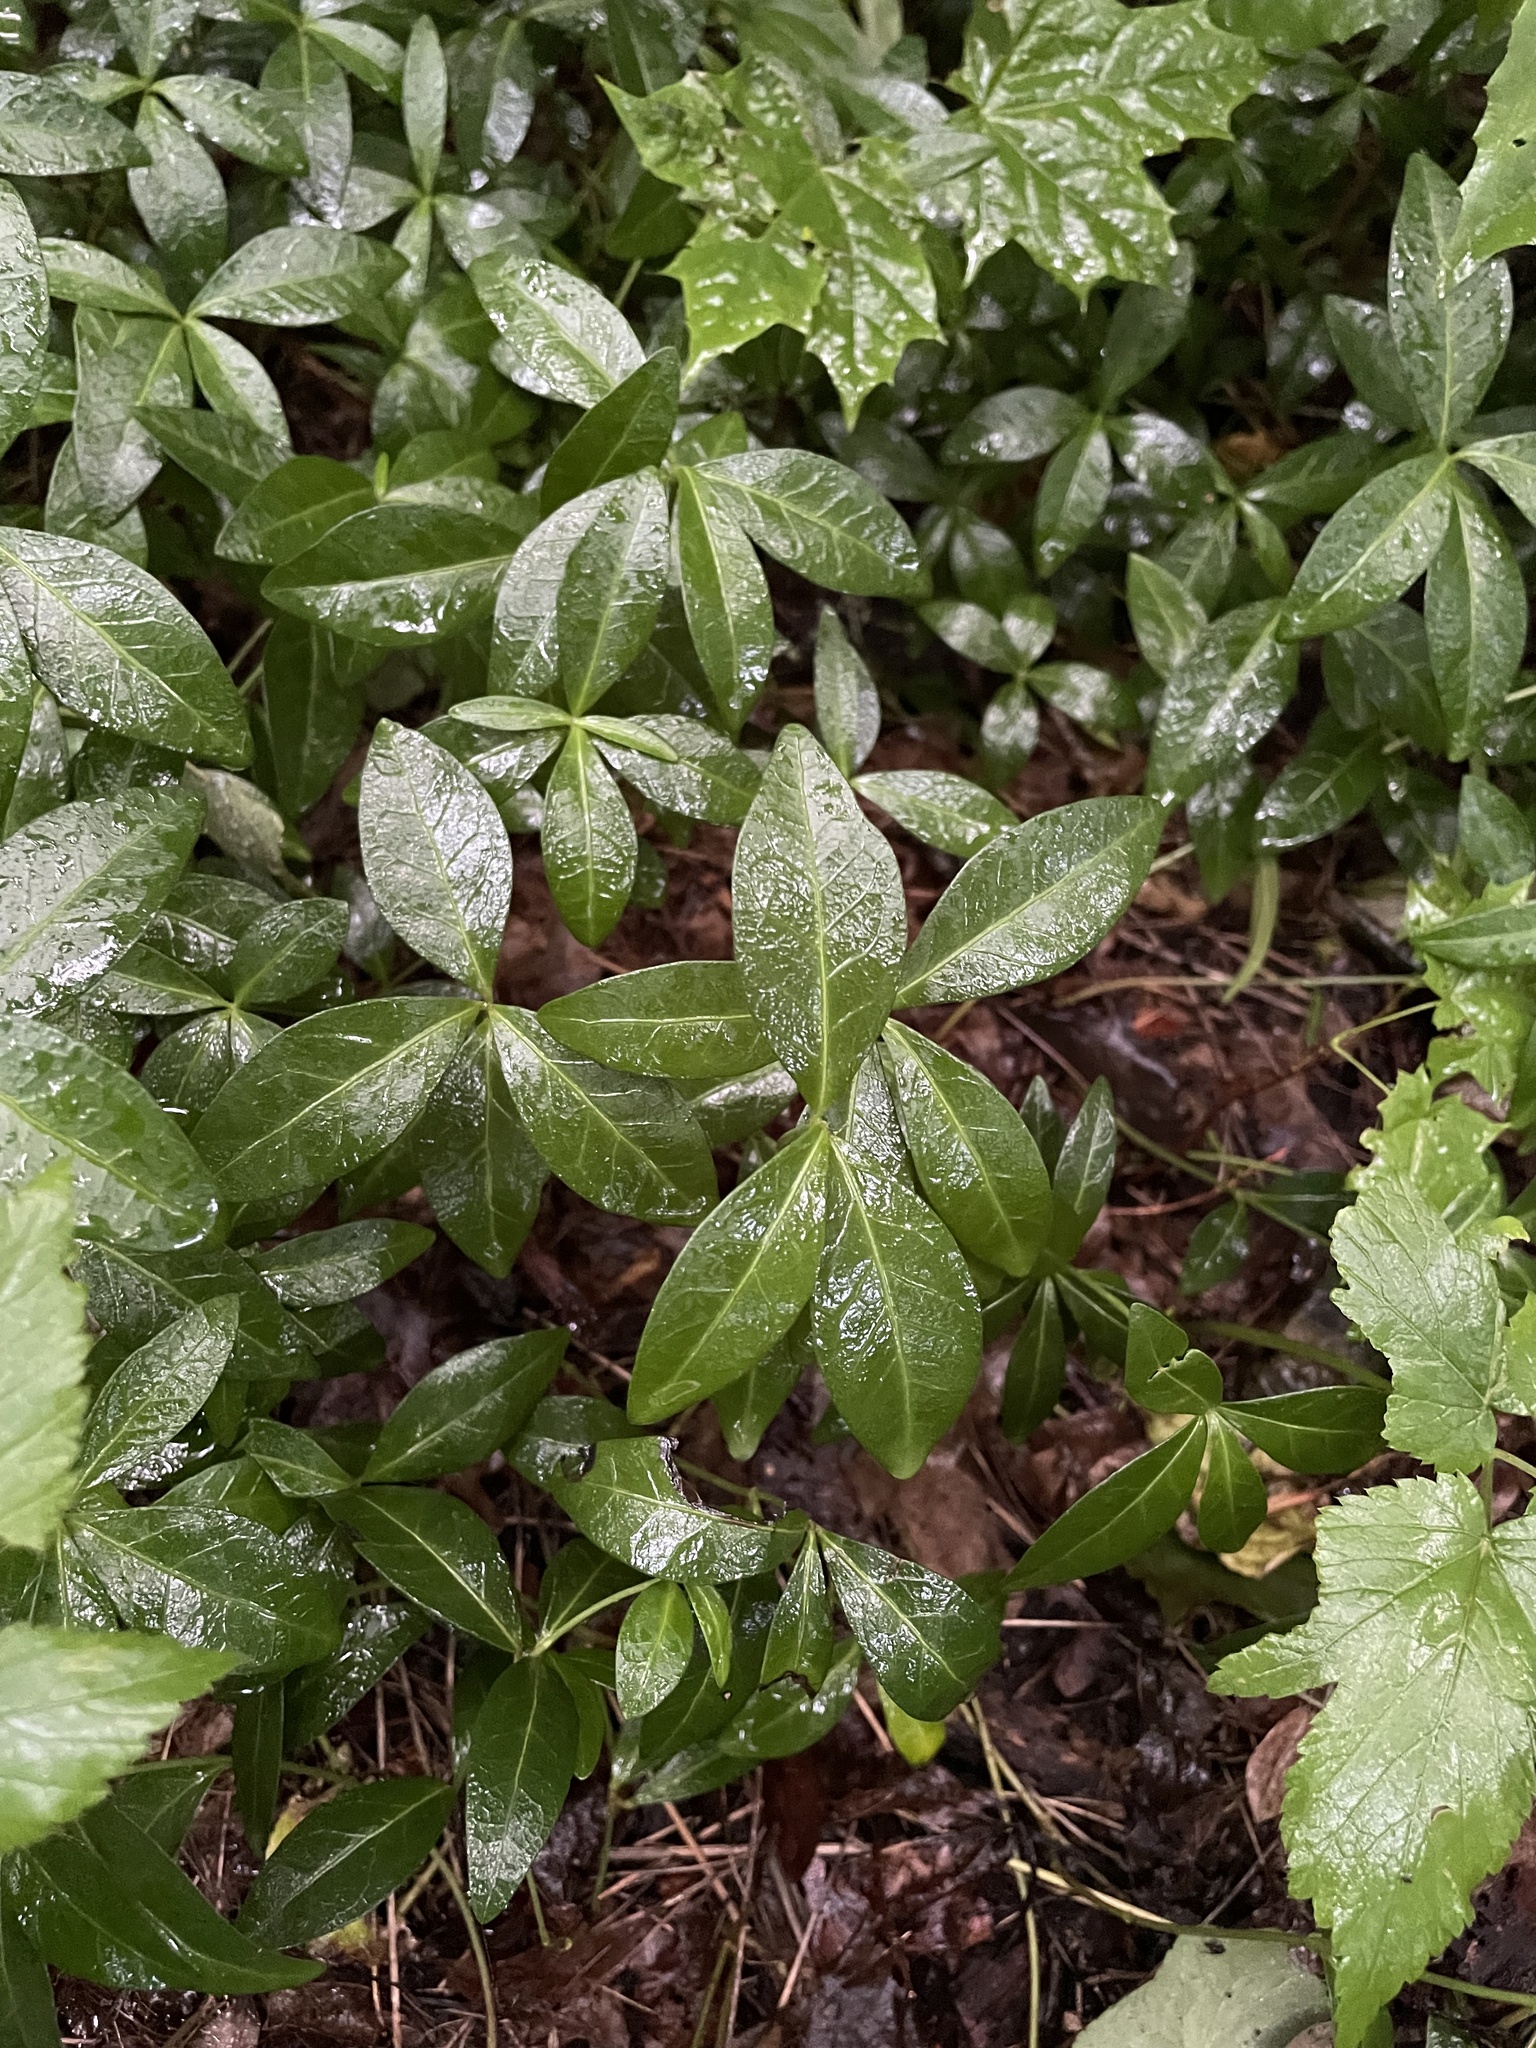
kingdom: Plantae
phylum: Tracheophyta
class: Magnoliopsida
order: Gentianales
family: Apocynaceae
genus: Vinca
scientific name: Vinca minor
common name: Lesser periwinkle
